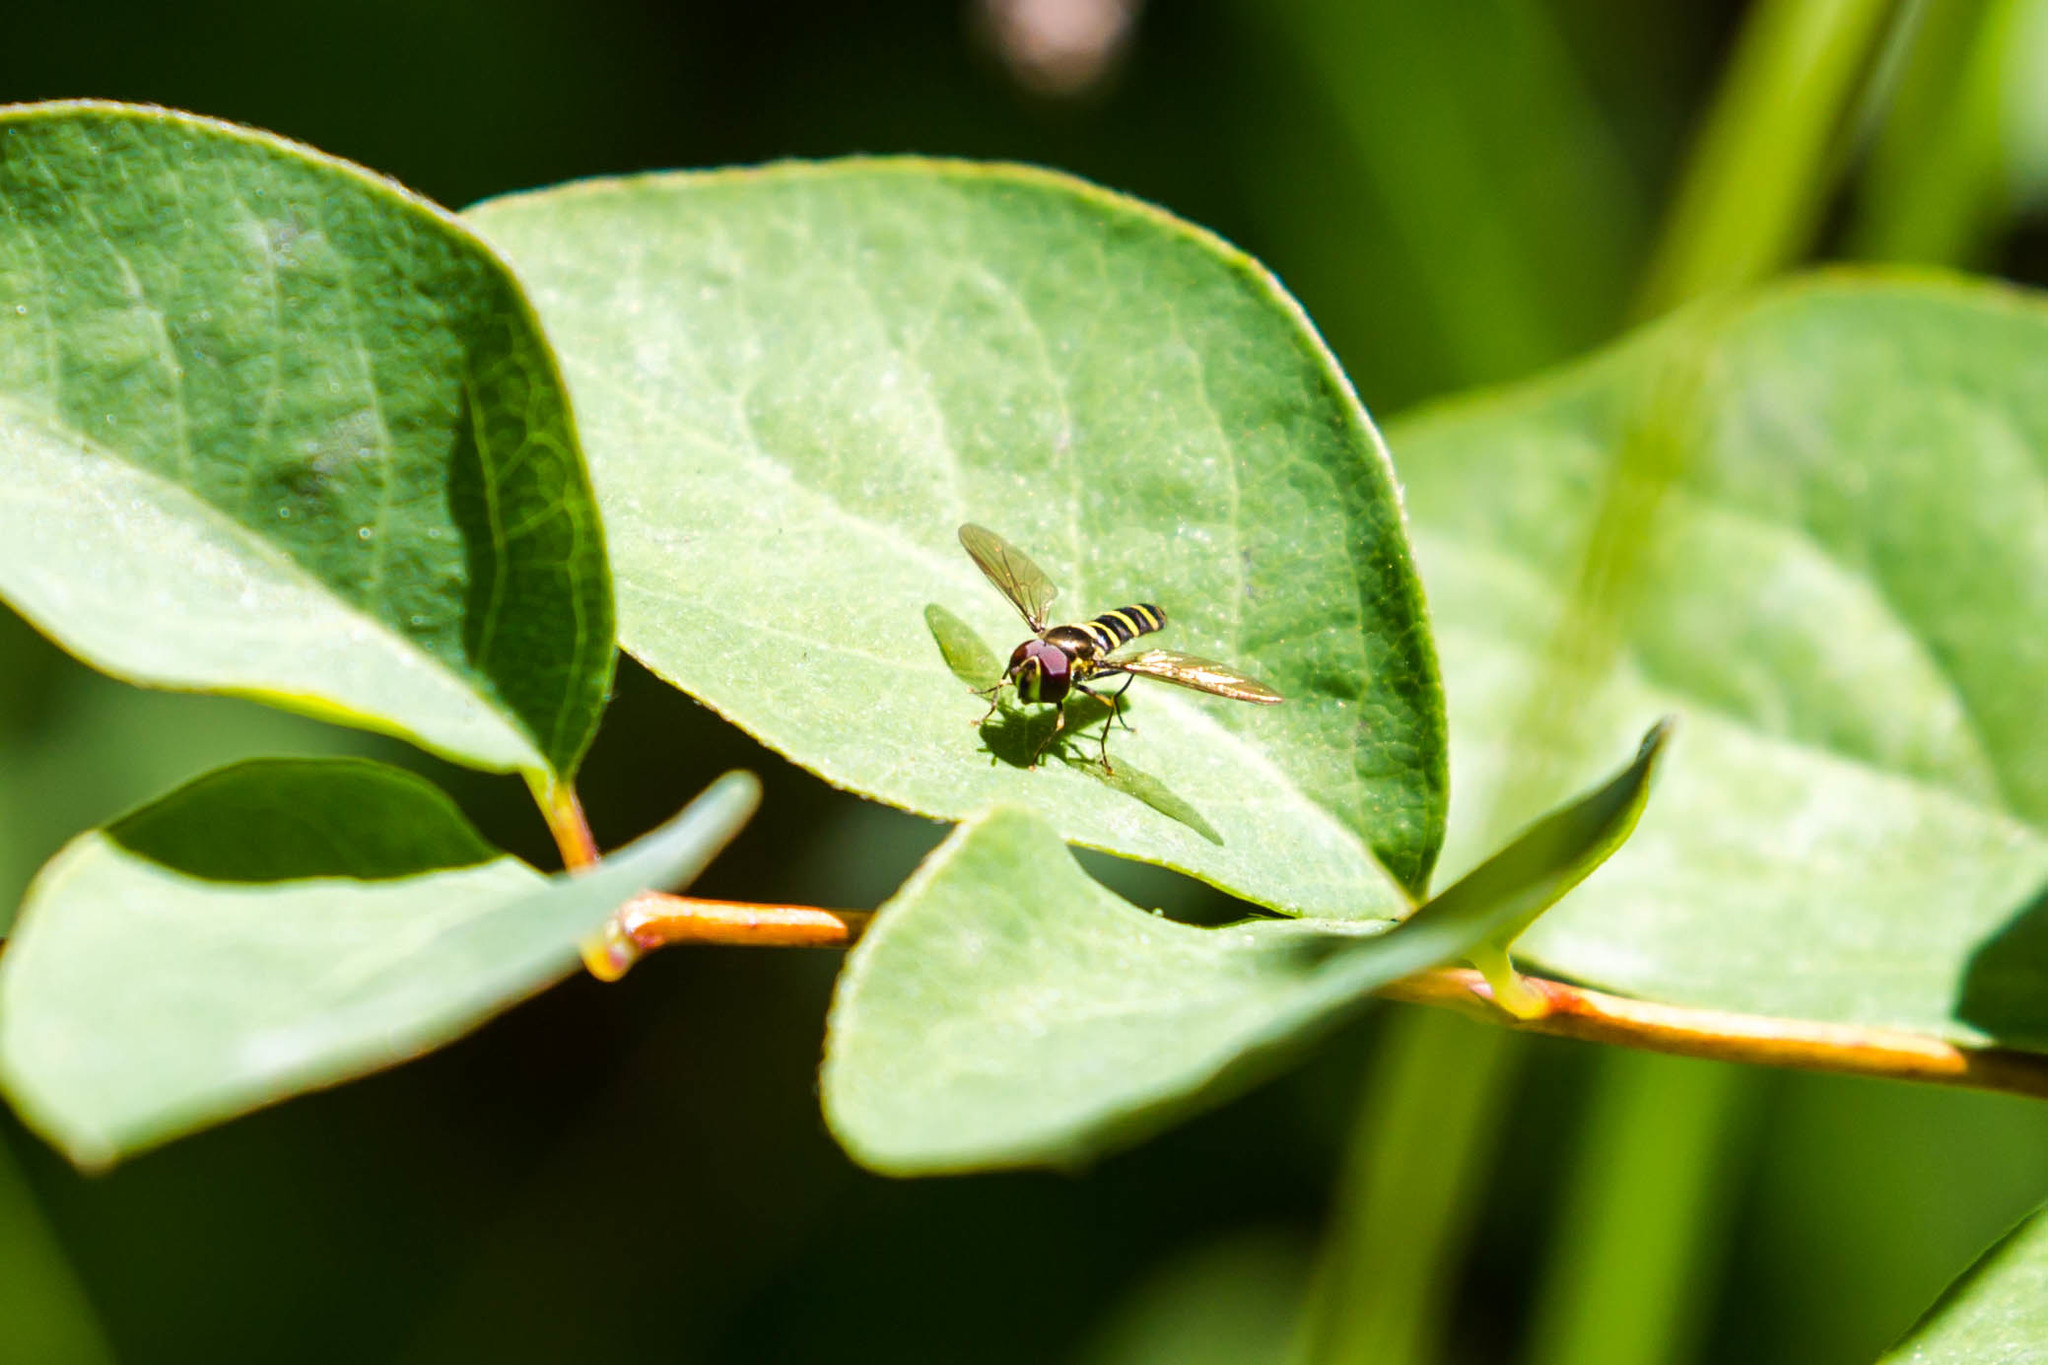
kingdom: Animalia
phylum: Arthropoda
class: Insecta
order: Diptera
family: Syrphidae
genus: Fazia
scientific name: Fazia micrura
